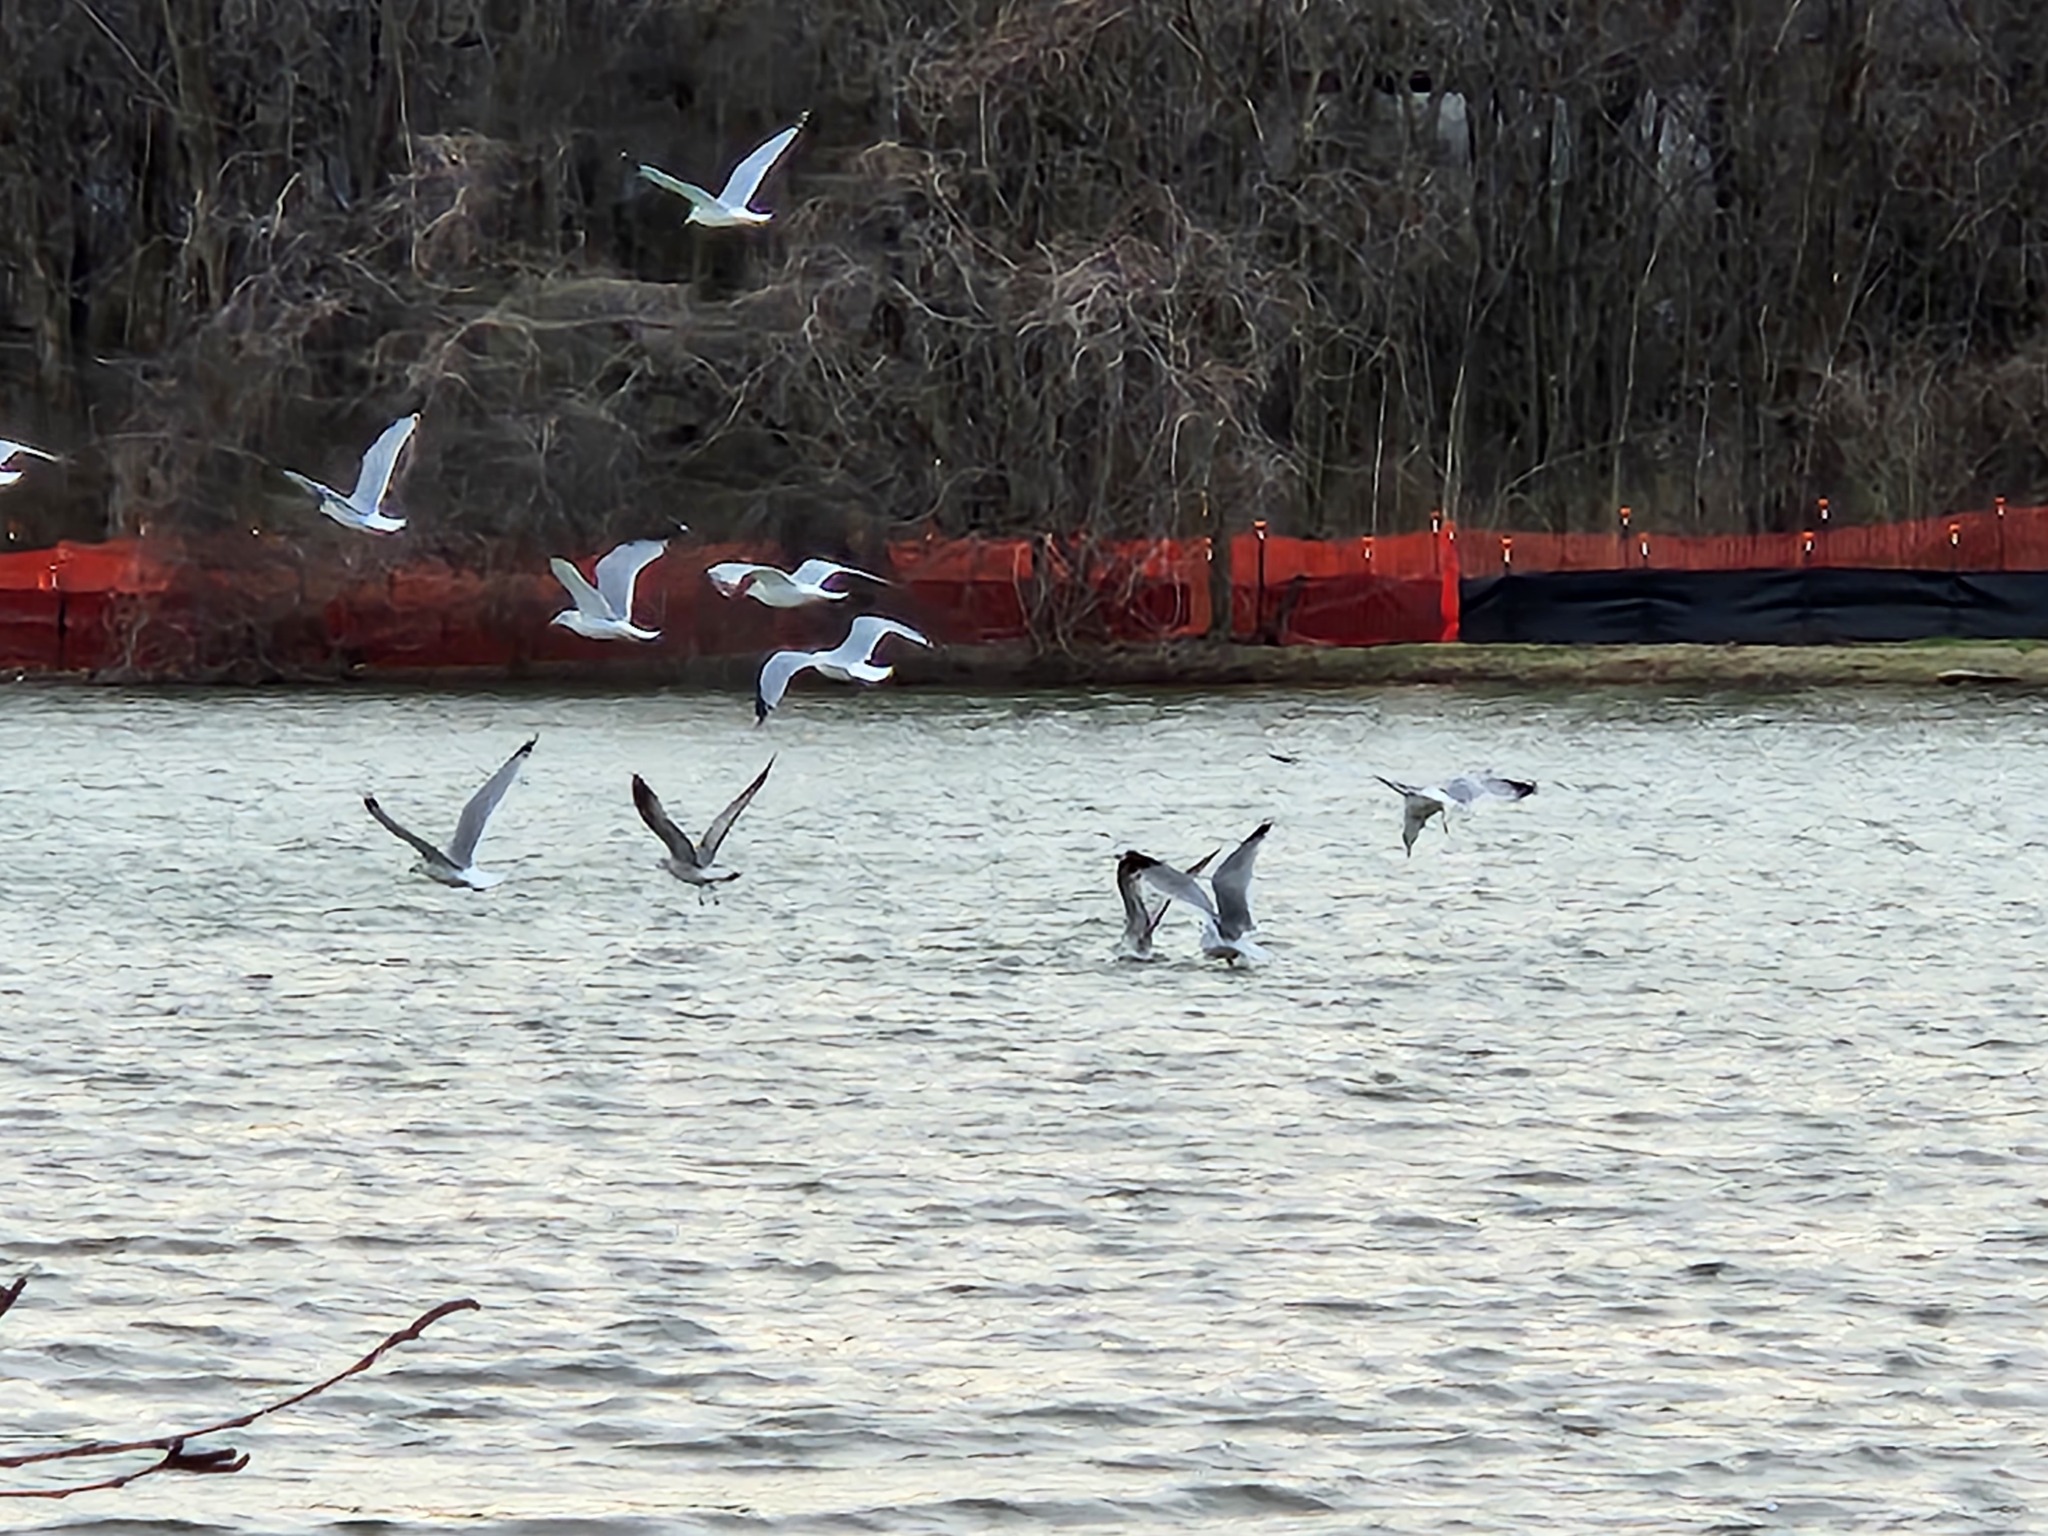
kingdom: Animalia
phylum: Chordata
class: Aves
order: Charadriiformes
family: Laridae
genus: Larus
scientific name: Larus delawarensis
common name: Ring-billed gull
